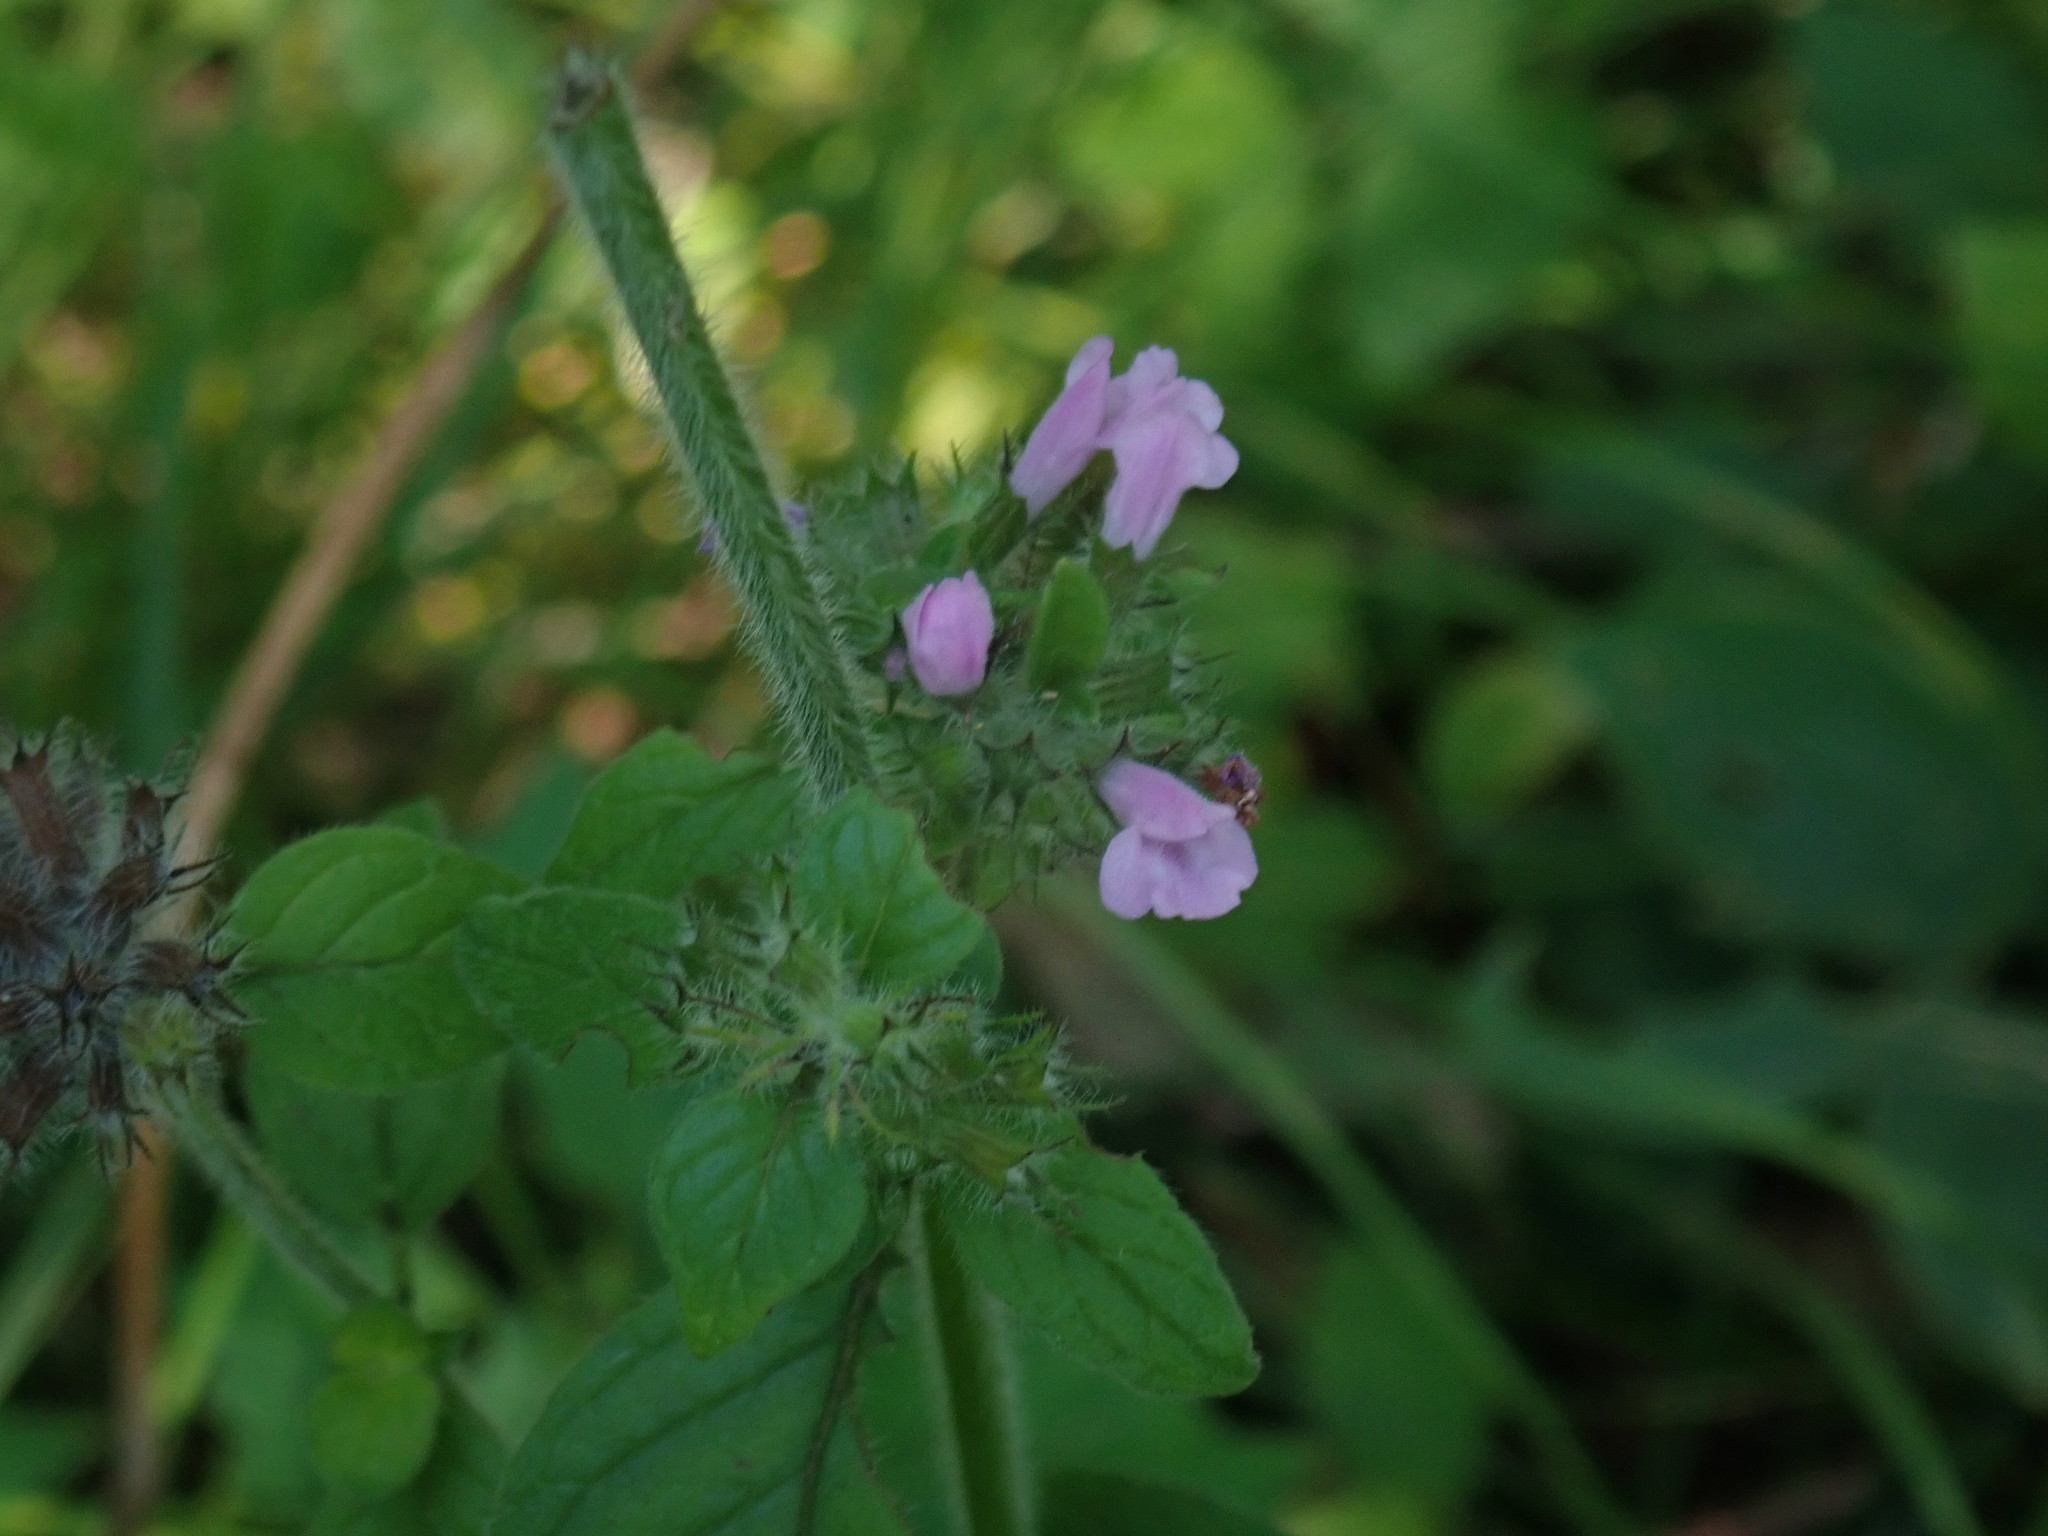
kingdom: Plantae
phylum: Tracheophyta
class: Magnoliopsida
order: Lamiales
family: Lamiaceae
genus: Clinopodium
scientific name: Clinopodium vulgare
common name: Wild basil
